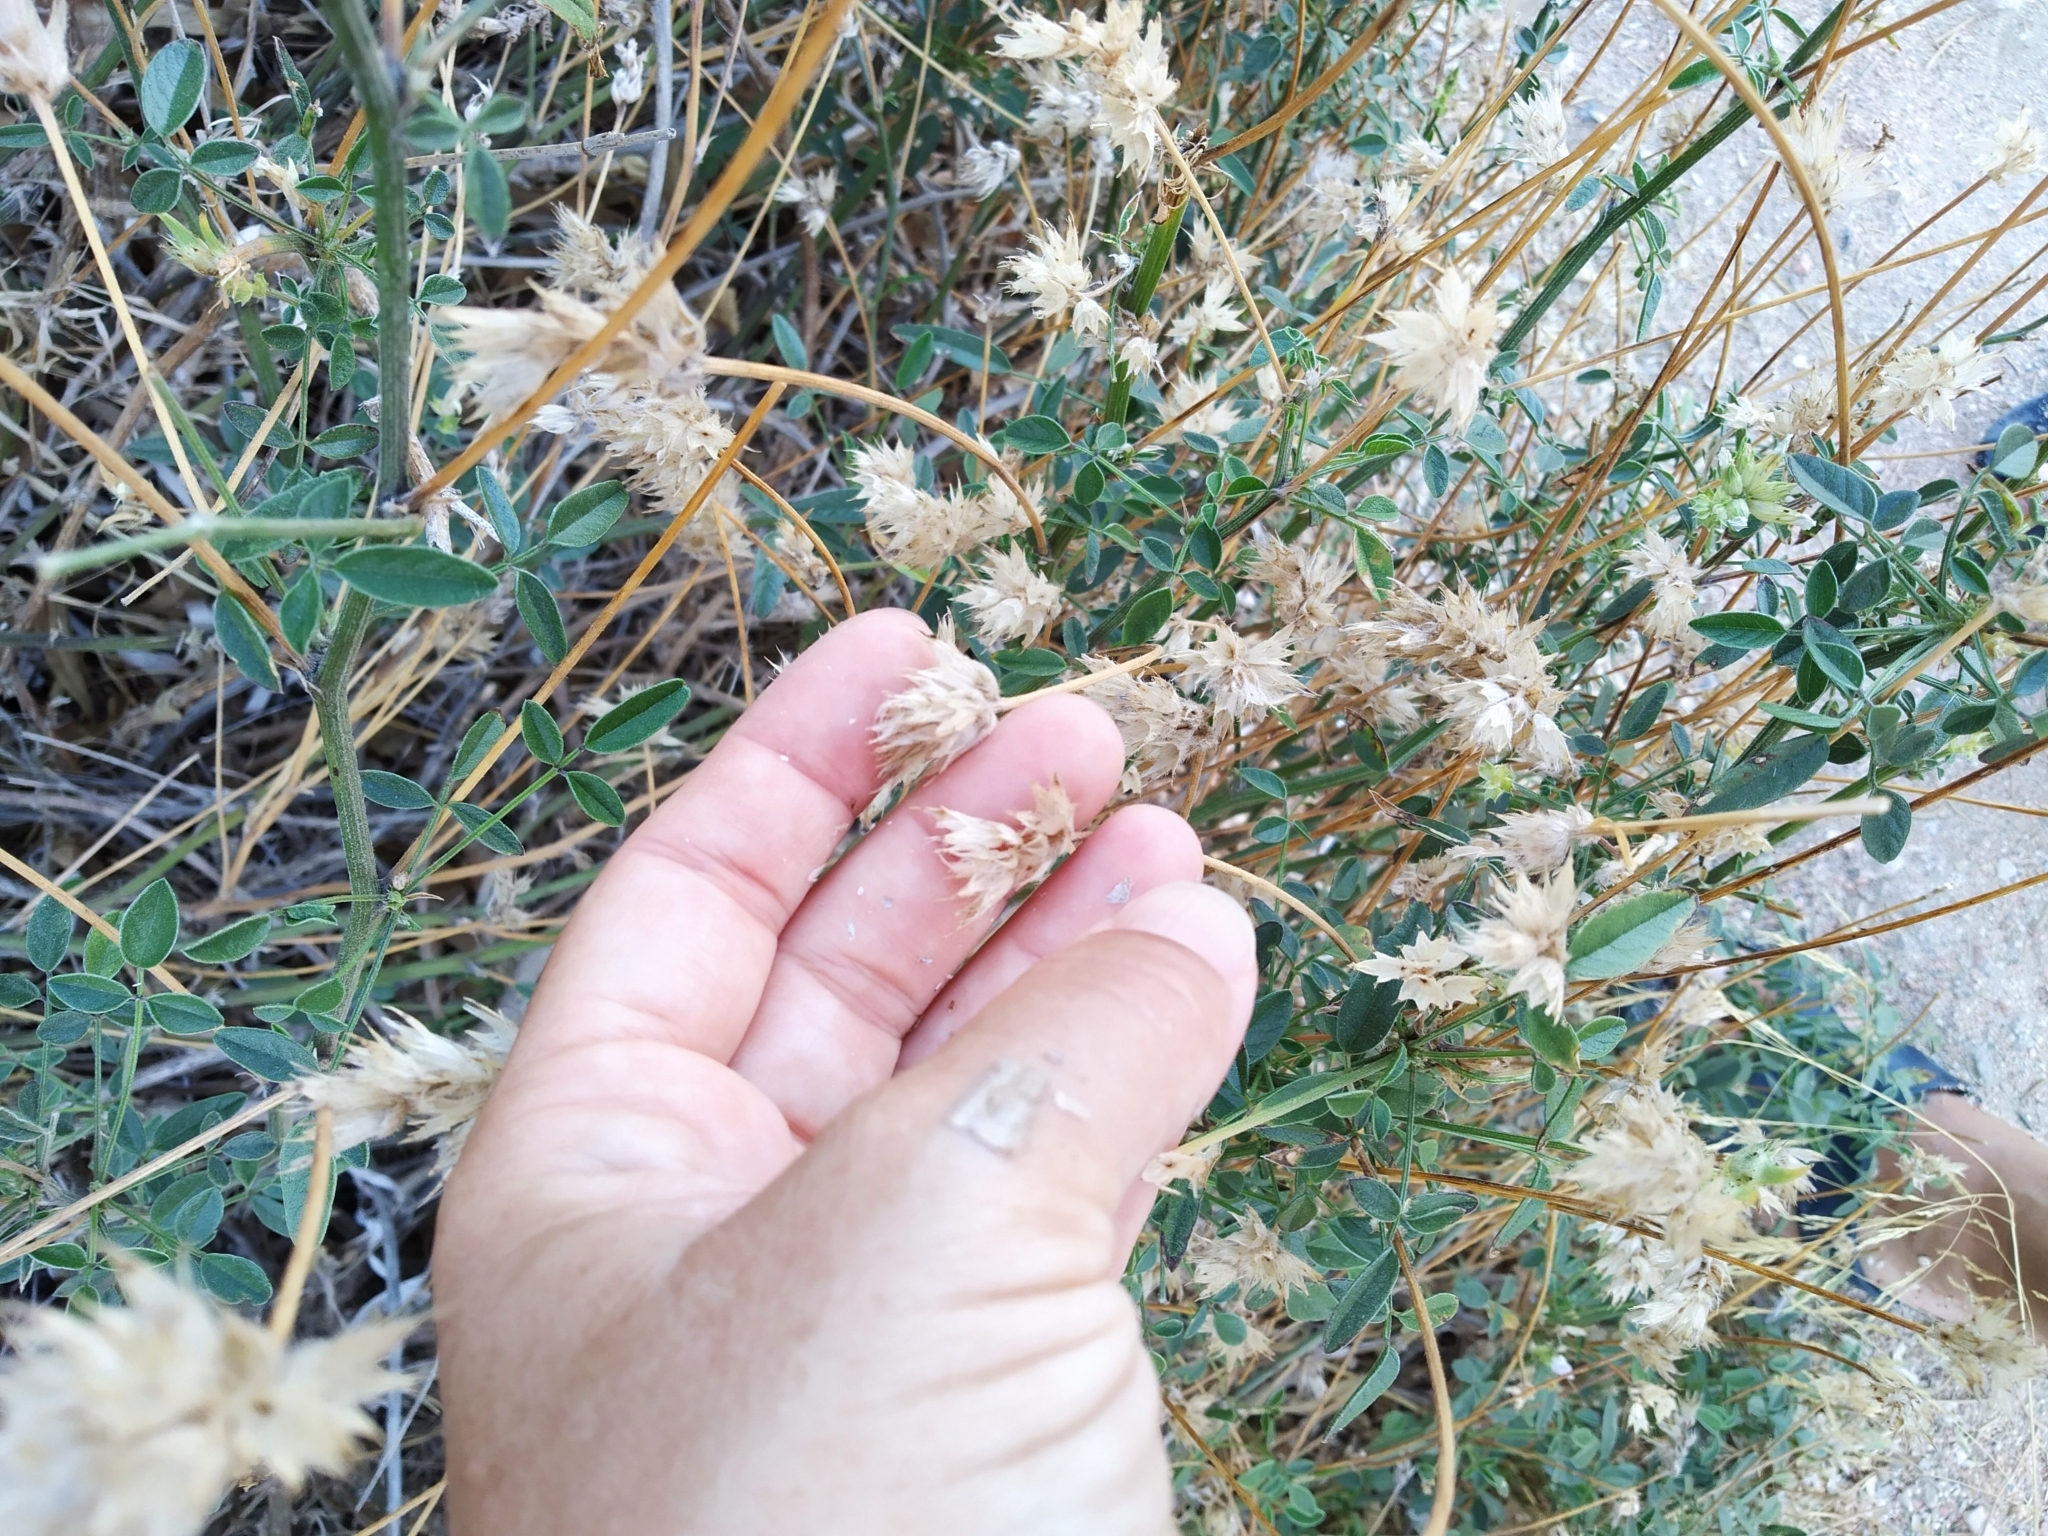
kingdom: Plantae
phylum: Tracheophyta
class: Magnoliopsida
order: Fabales
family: Fabaceae
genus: Bituminaria
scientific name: Bituminaria bituminosa
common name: Arabian pea
